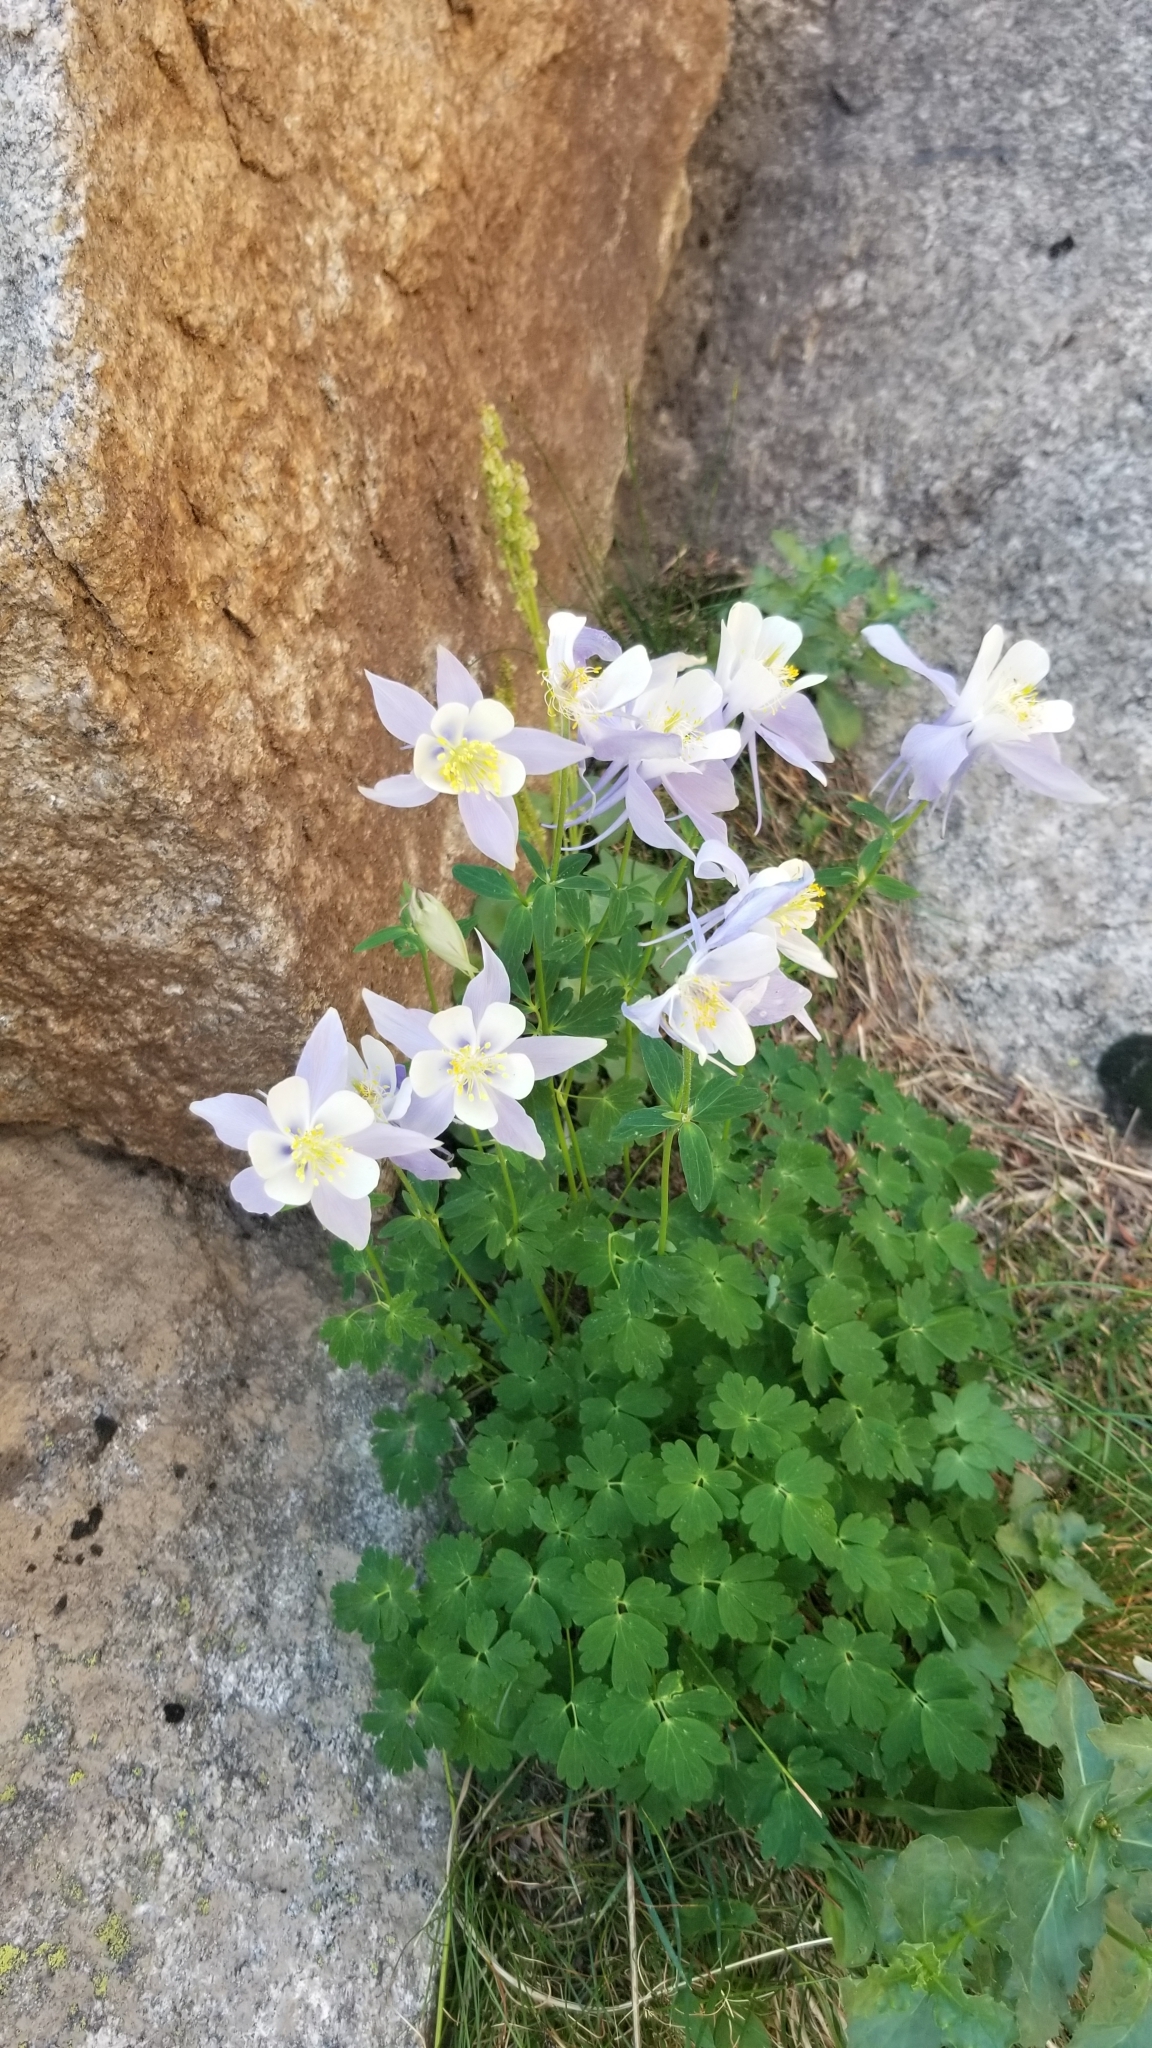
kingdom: Plantae
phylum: Tracheophyta
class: Magnoliopsida
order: Ranunculales
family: Ranunculaceae
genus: Aquilegia
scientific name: Aquilegia coerulea
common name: Rocky mountain columbine
